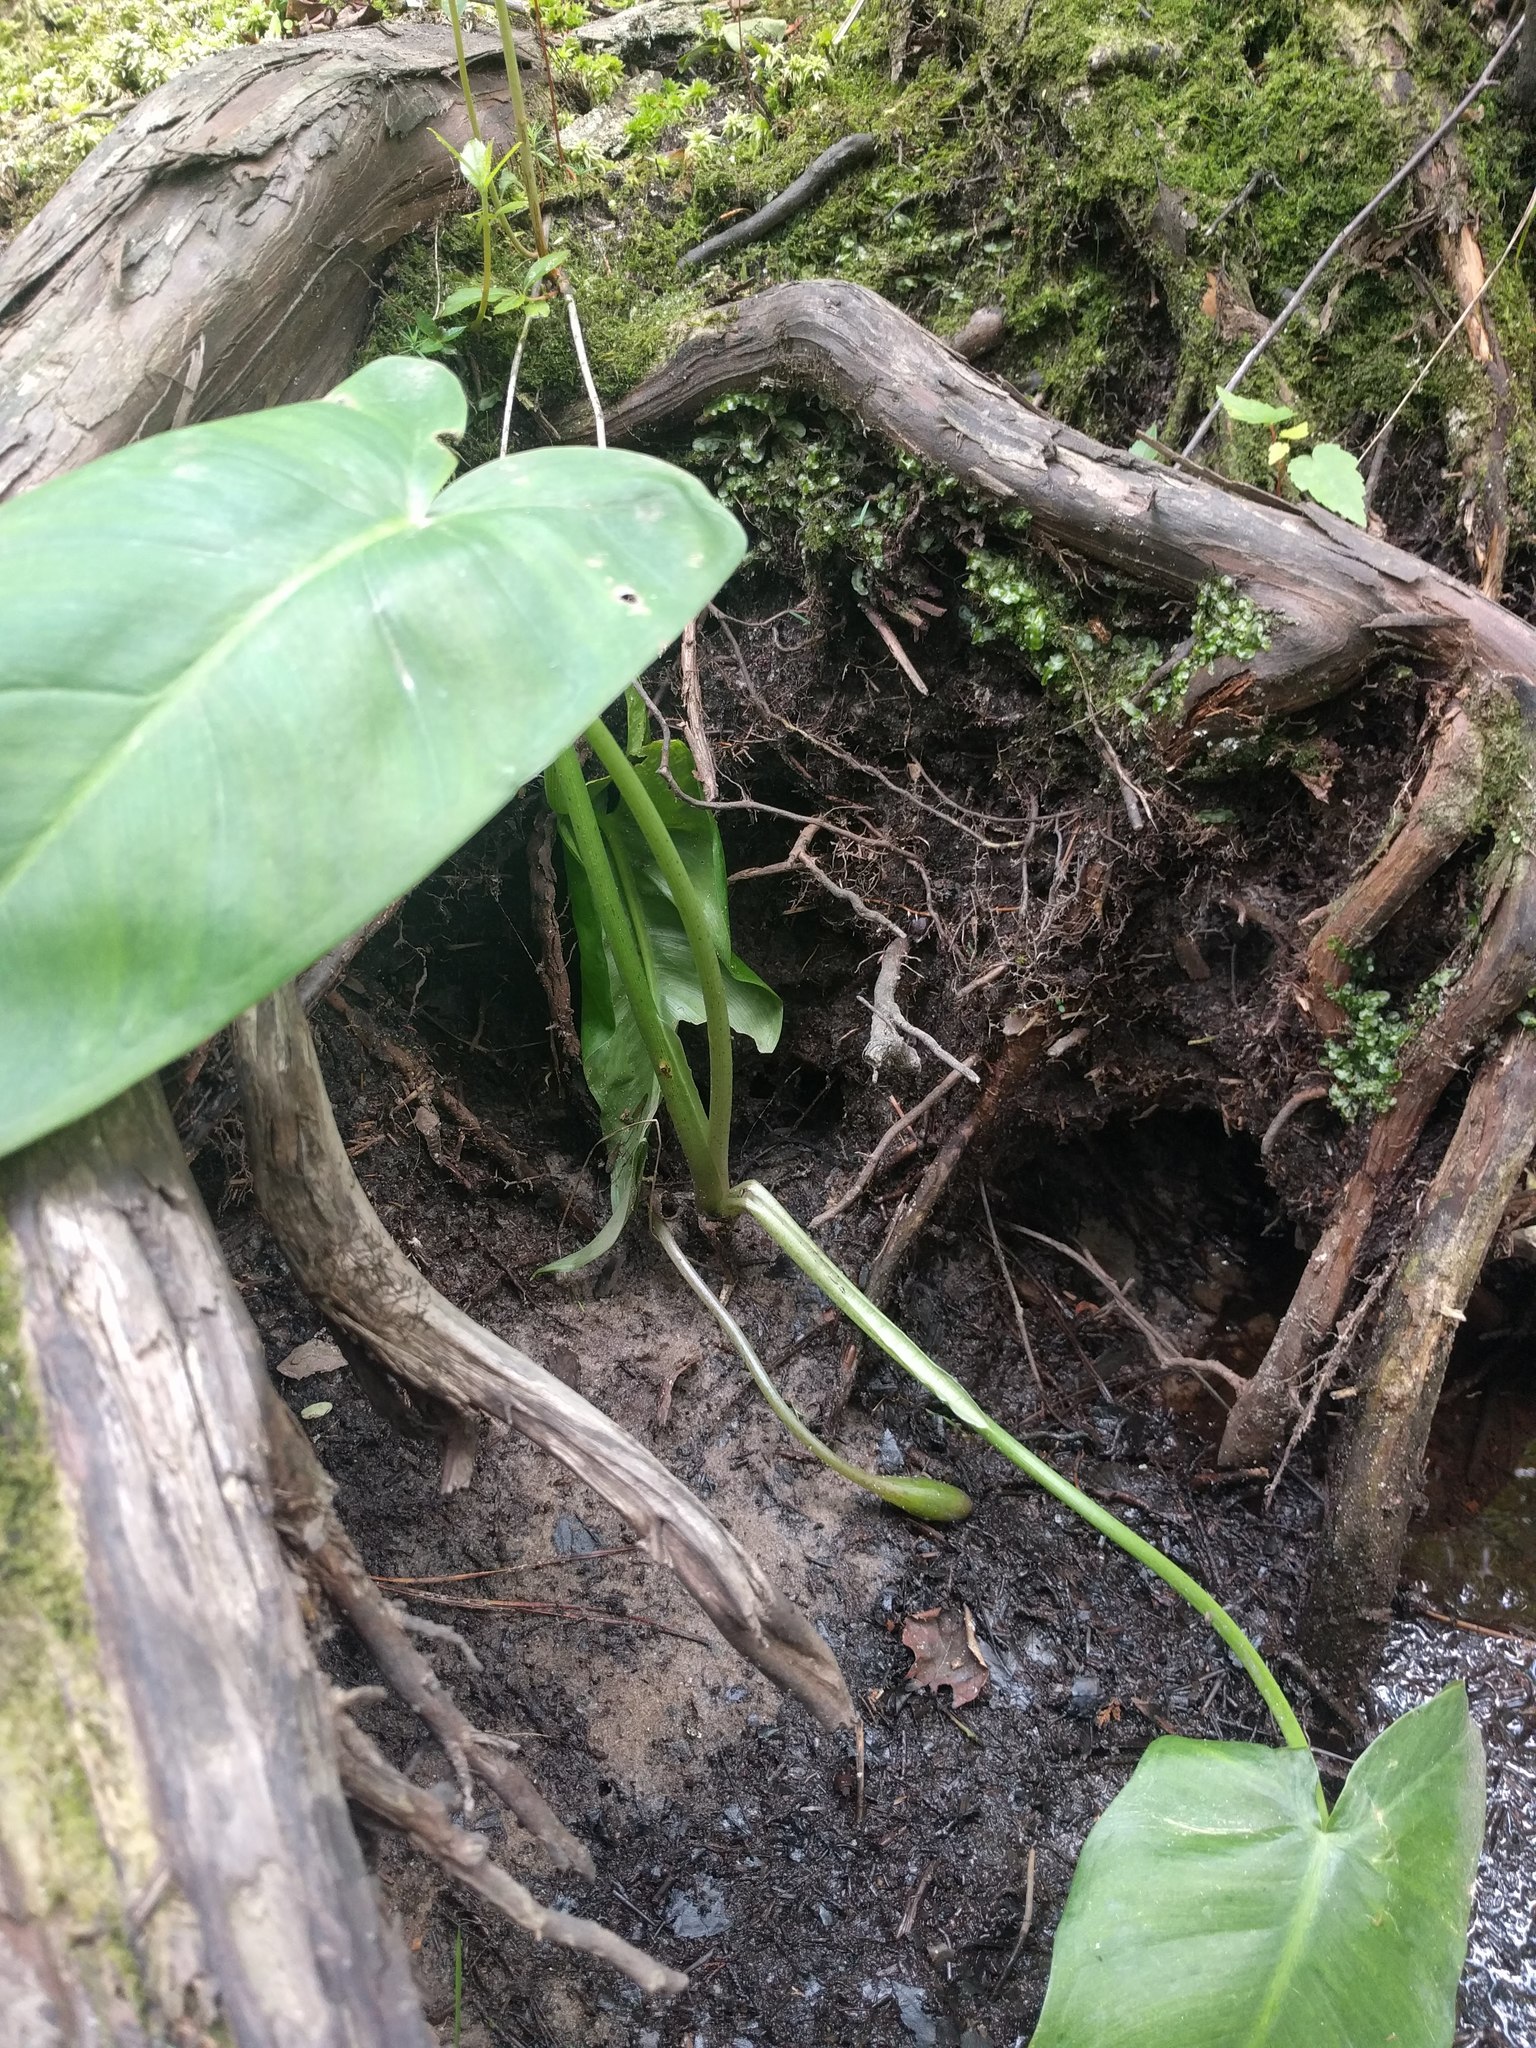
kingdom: Plantae
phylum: Tracheophyta
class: Liliopsida
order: Alismatales
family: Araceae
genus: Peltandra
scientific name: Peltandra virginica
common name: Arrow arum
